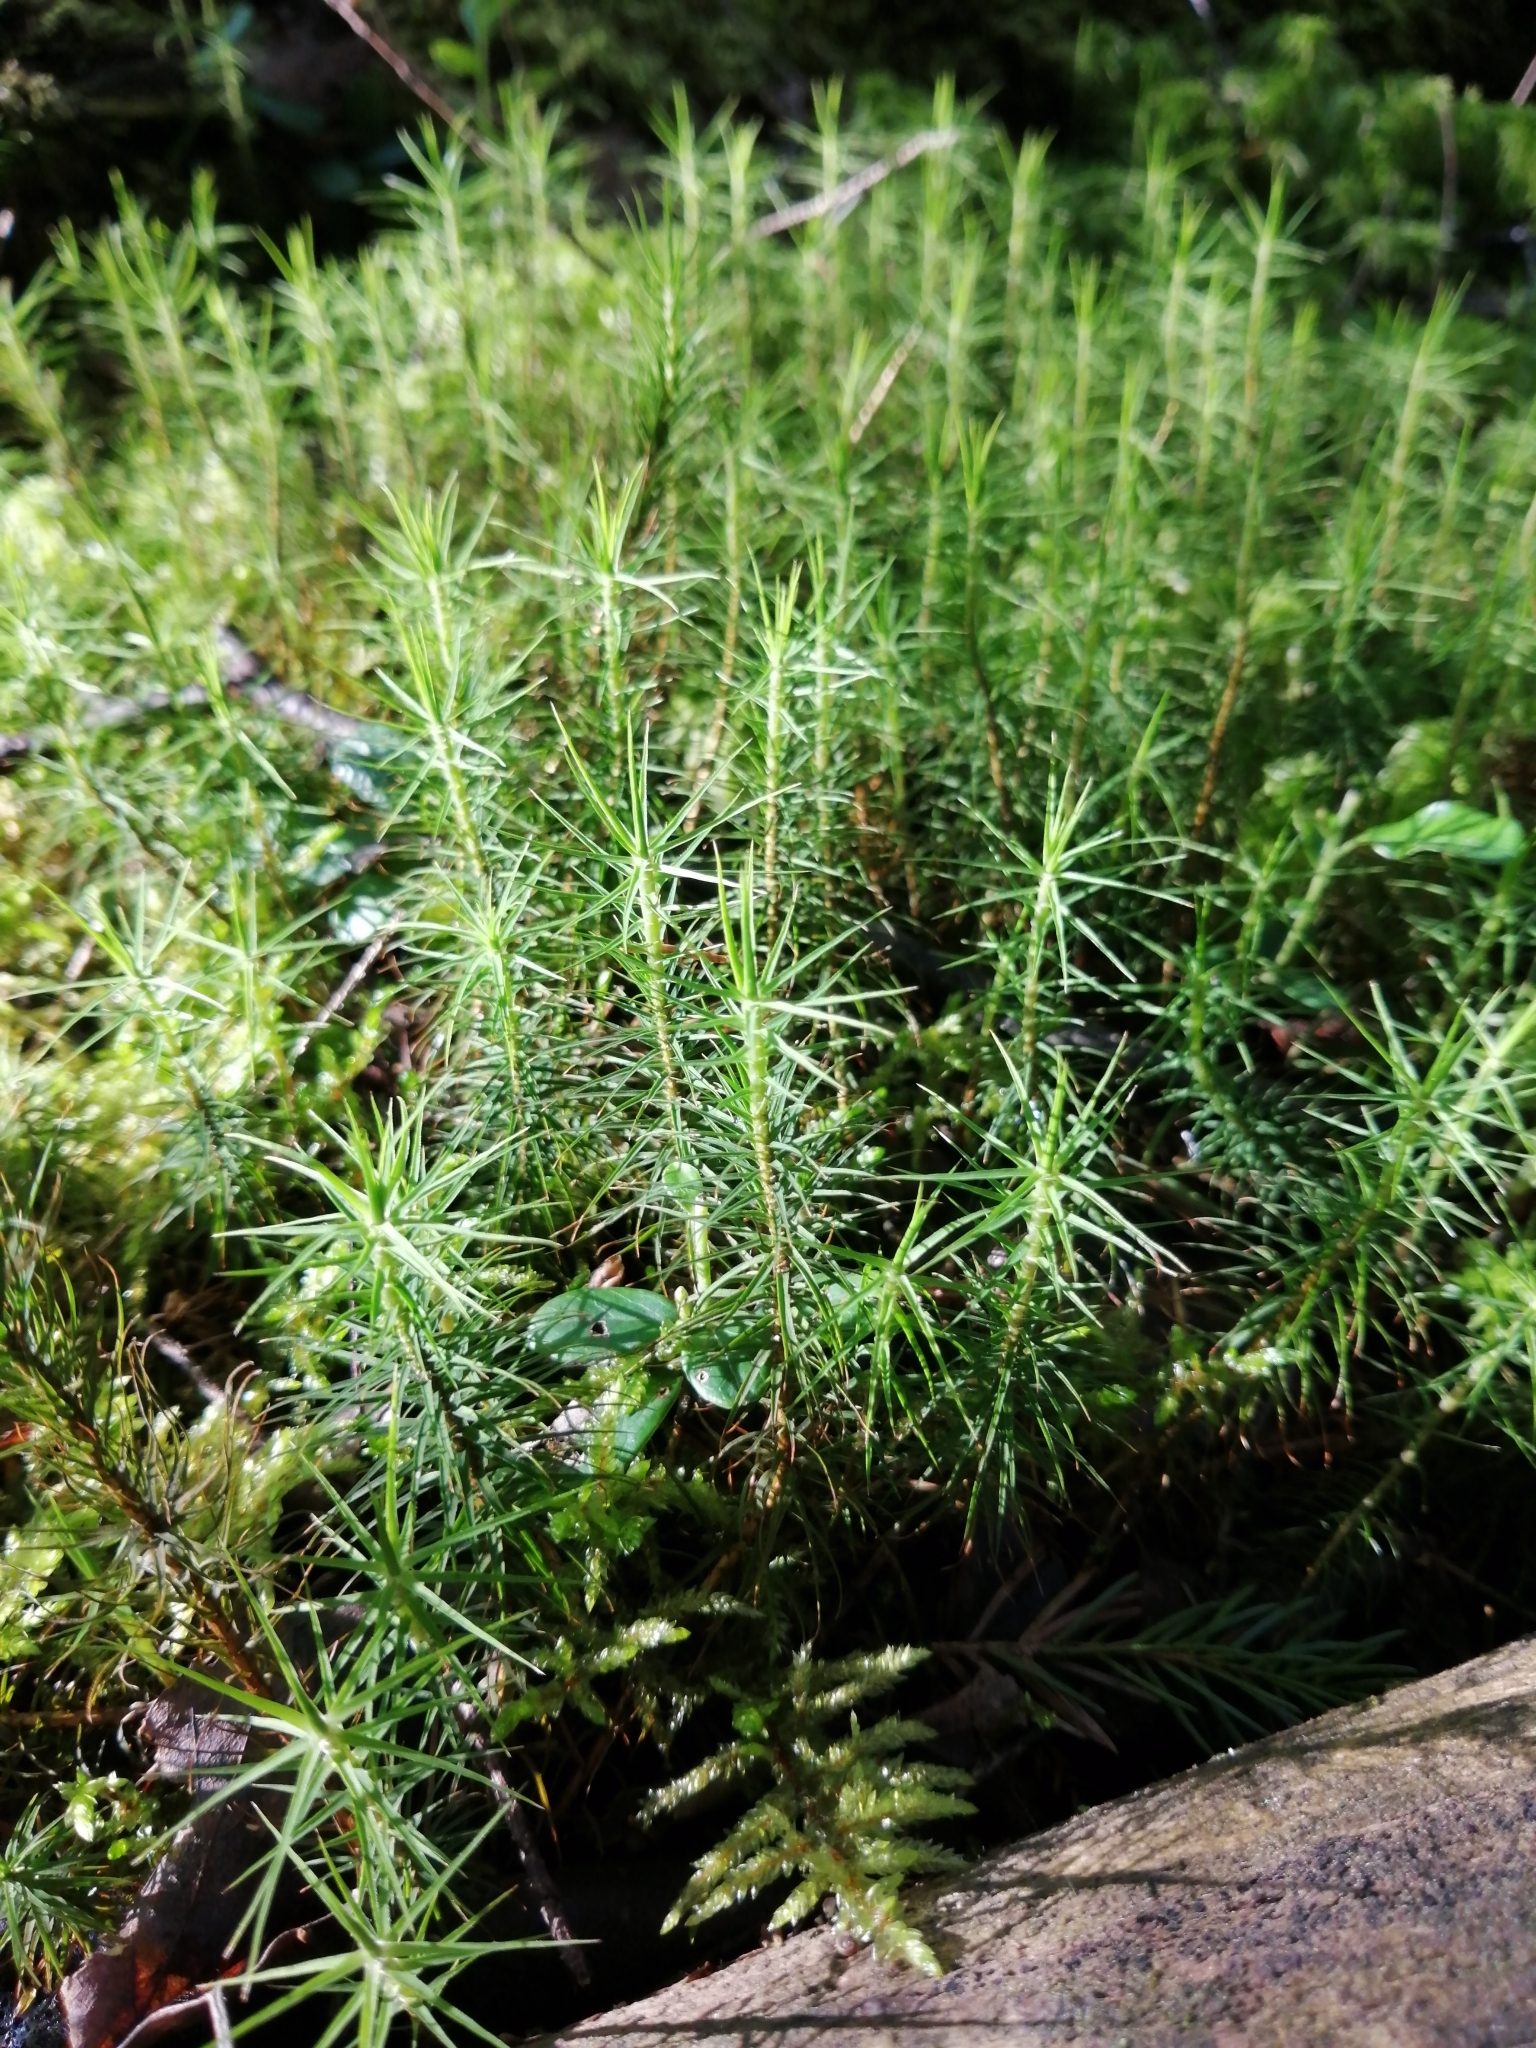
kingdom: Plantae
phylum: Bryophyta
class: Polytrichopsida
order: Polytrichales
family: Polytrichaceae
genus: Polytrichum
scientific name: Polytrichum commune
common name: Common haircap
